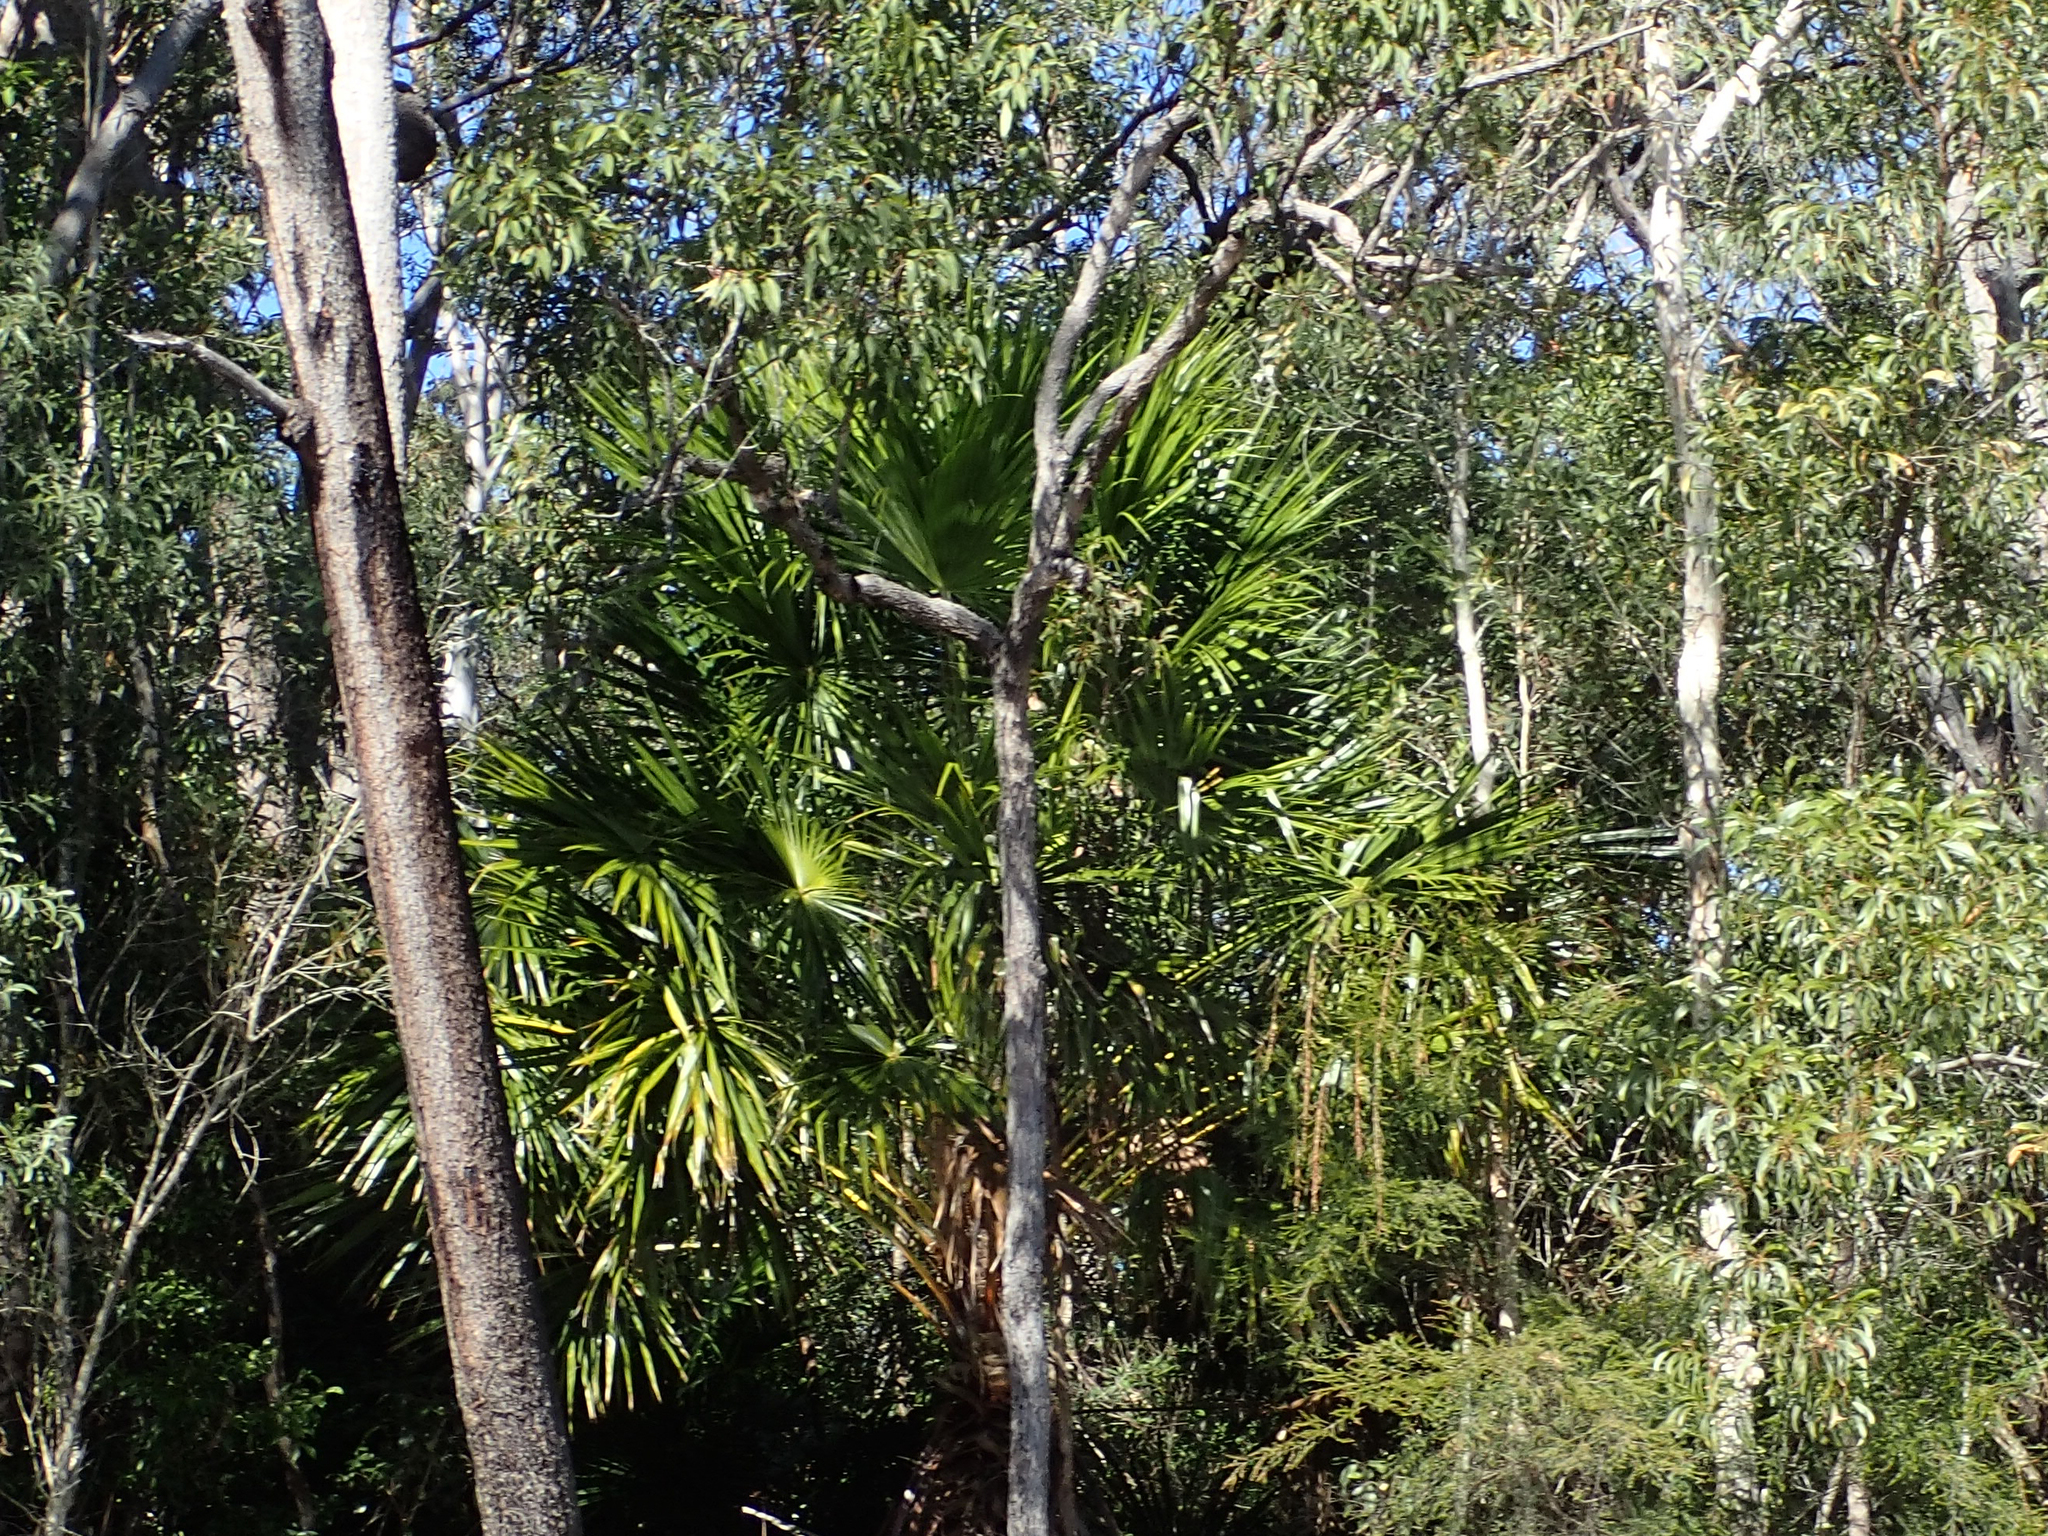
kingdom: Plantae
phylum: Tracheophyta
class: Liliopsida
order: Arecales
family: Arecaceae
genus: Livistona
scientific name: Livistona australis
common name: Cabbage fan palm
